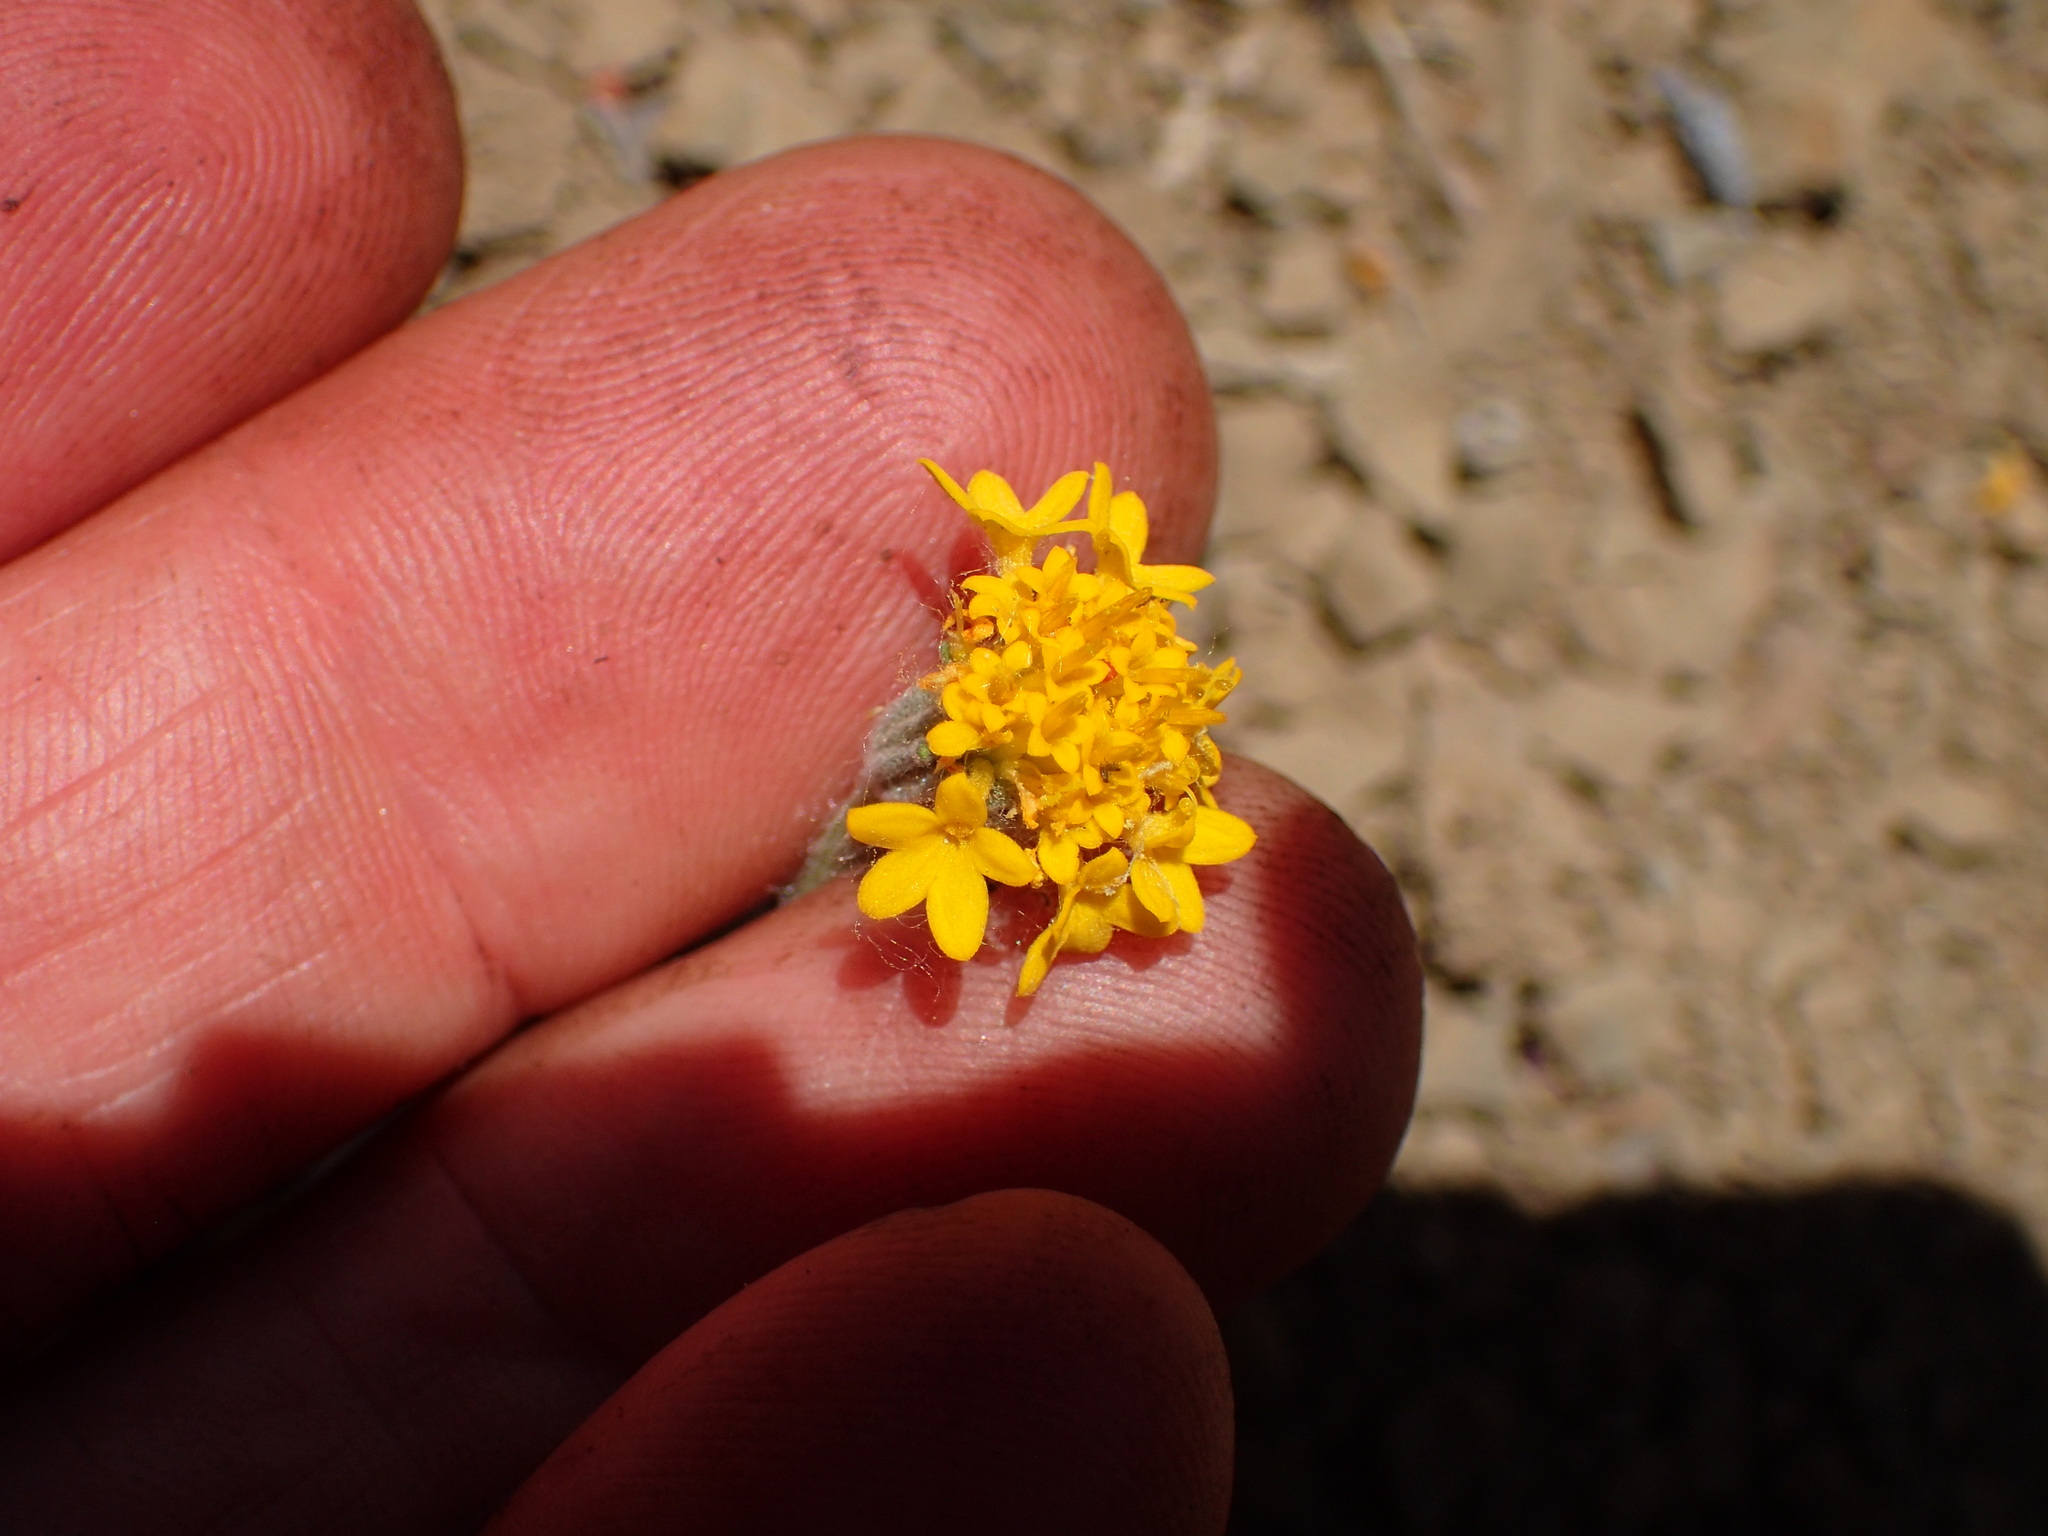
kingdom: Plantae
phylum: Tracheophyta
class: Magnoliopsida
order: Asterales
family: Asteraceae
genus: Chaenactis
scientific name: Chaenactis glabriuscula
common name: Yellow pincushion
